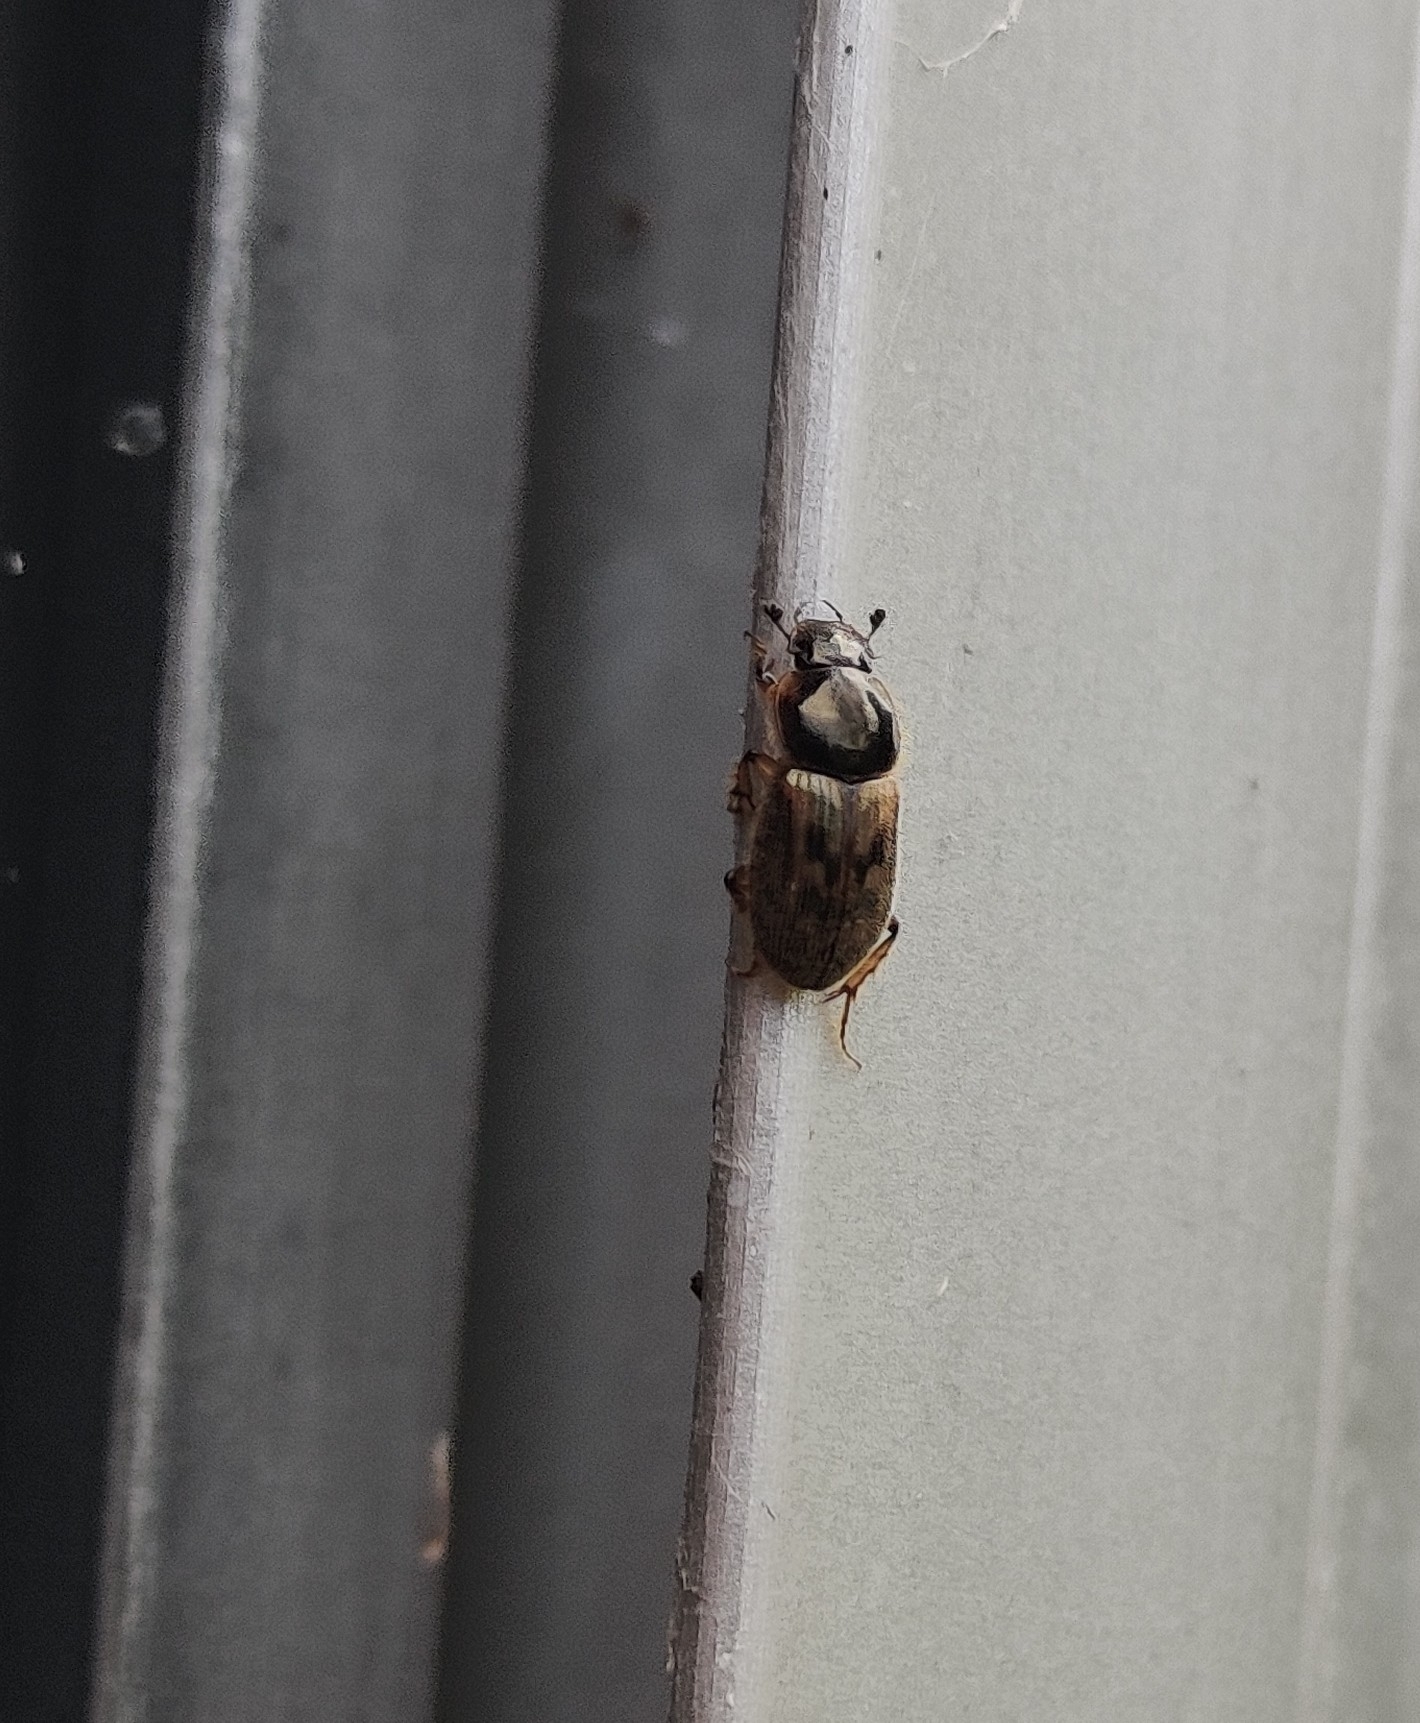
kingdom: Animalia
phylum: Arthropoda
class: Insecta
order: Coleoptera
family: Scarabaeidae
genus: Nimbus
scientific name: Nimbus contaminatus
